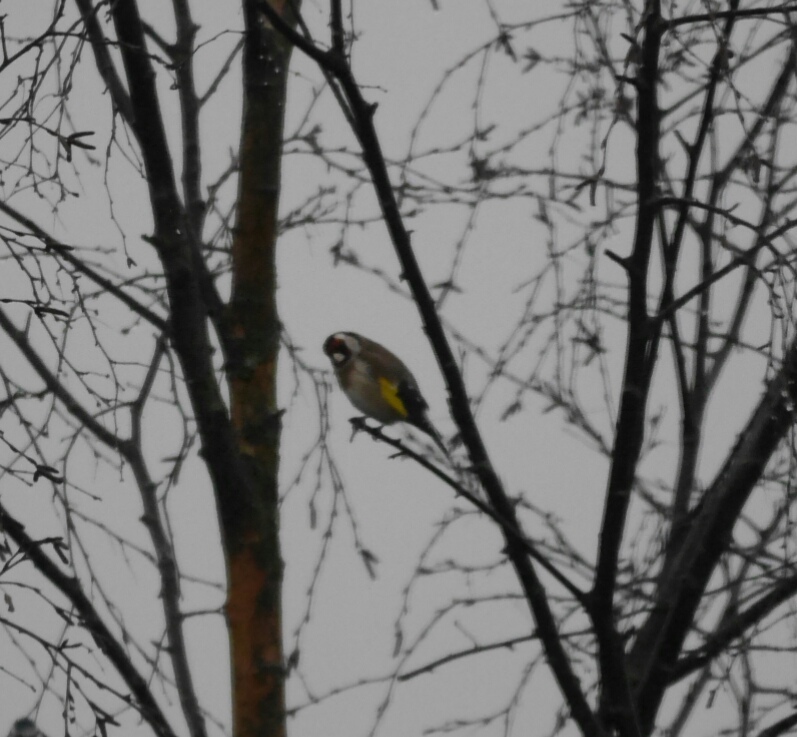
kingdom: Animalia
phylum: Chordata
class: Aves
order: Passeriformes
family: Fringillidae
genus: Carduelis
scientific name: Carduelis carduelis
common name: European goldfinch
